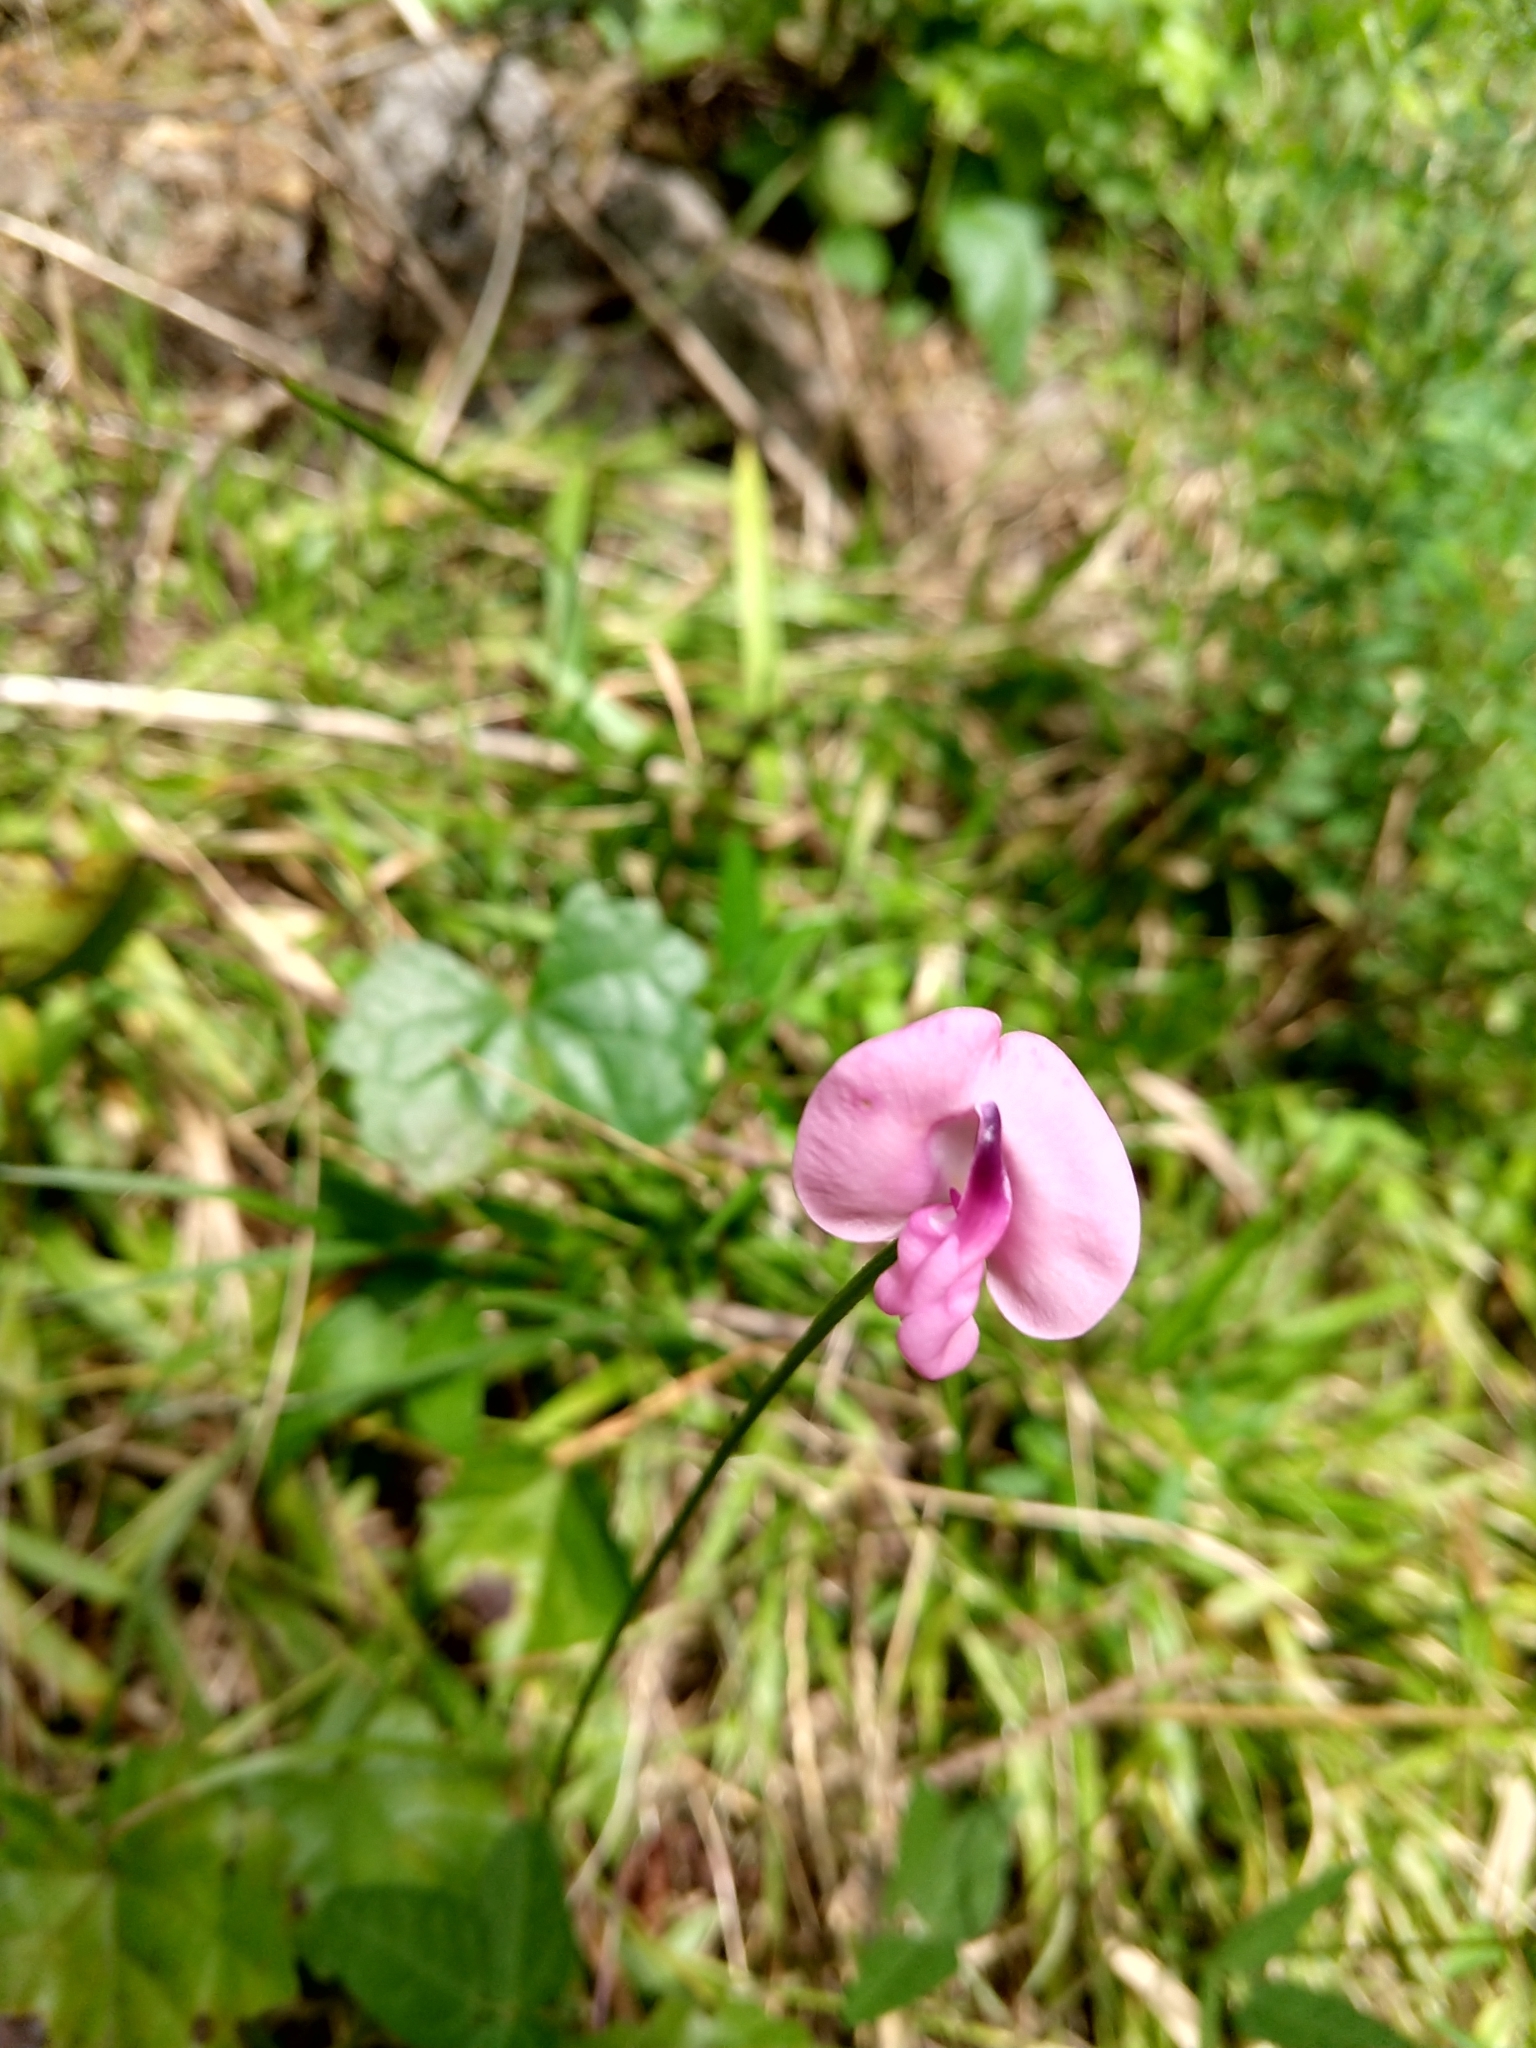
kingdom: Plantae
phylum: Tracheophyta
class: Magnoliopsida
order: Fabales
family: Fabaceae
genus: Strophostyles
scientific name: Strophostyles umbellata
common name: Perennial wild bean
